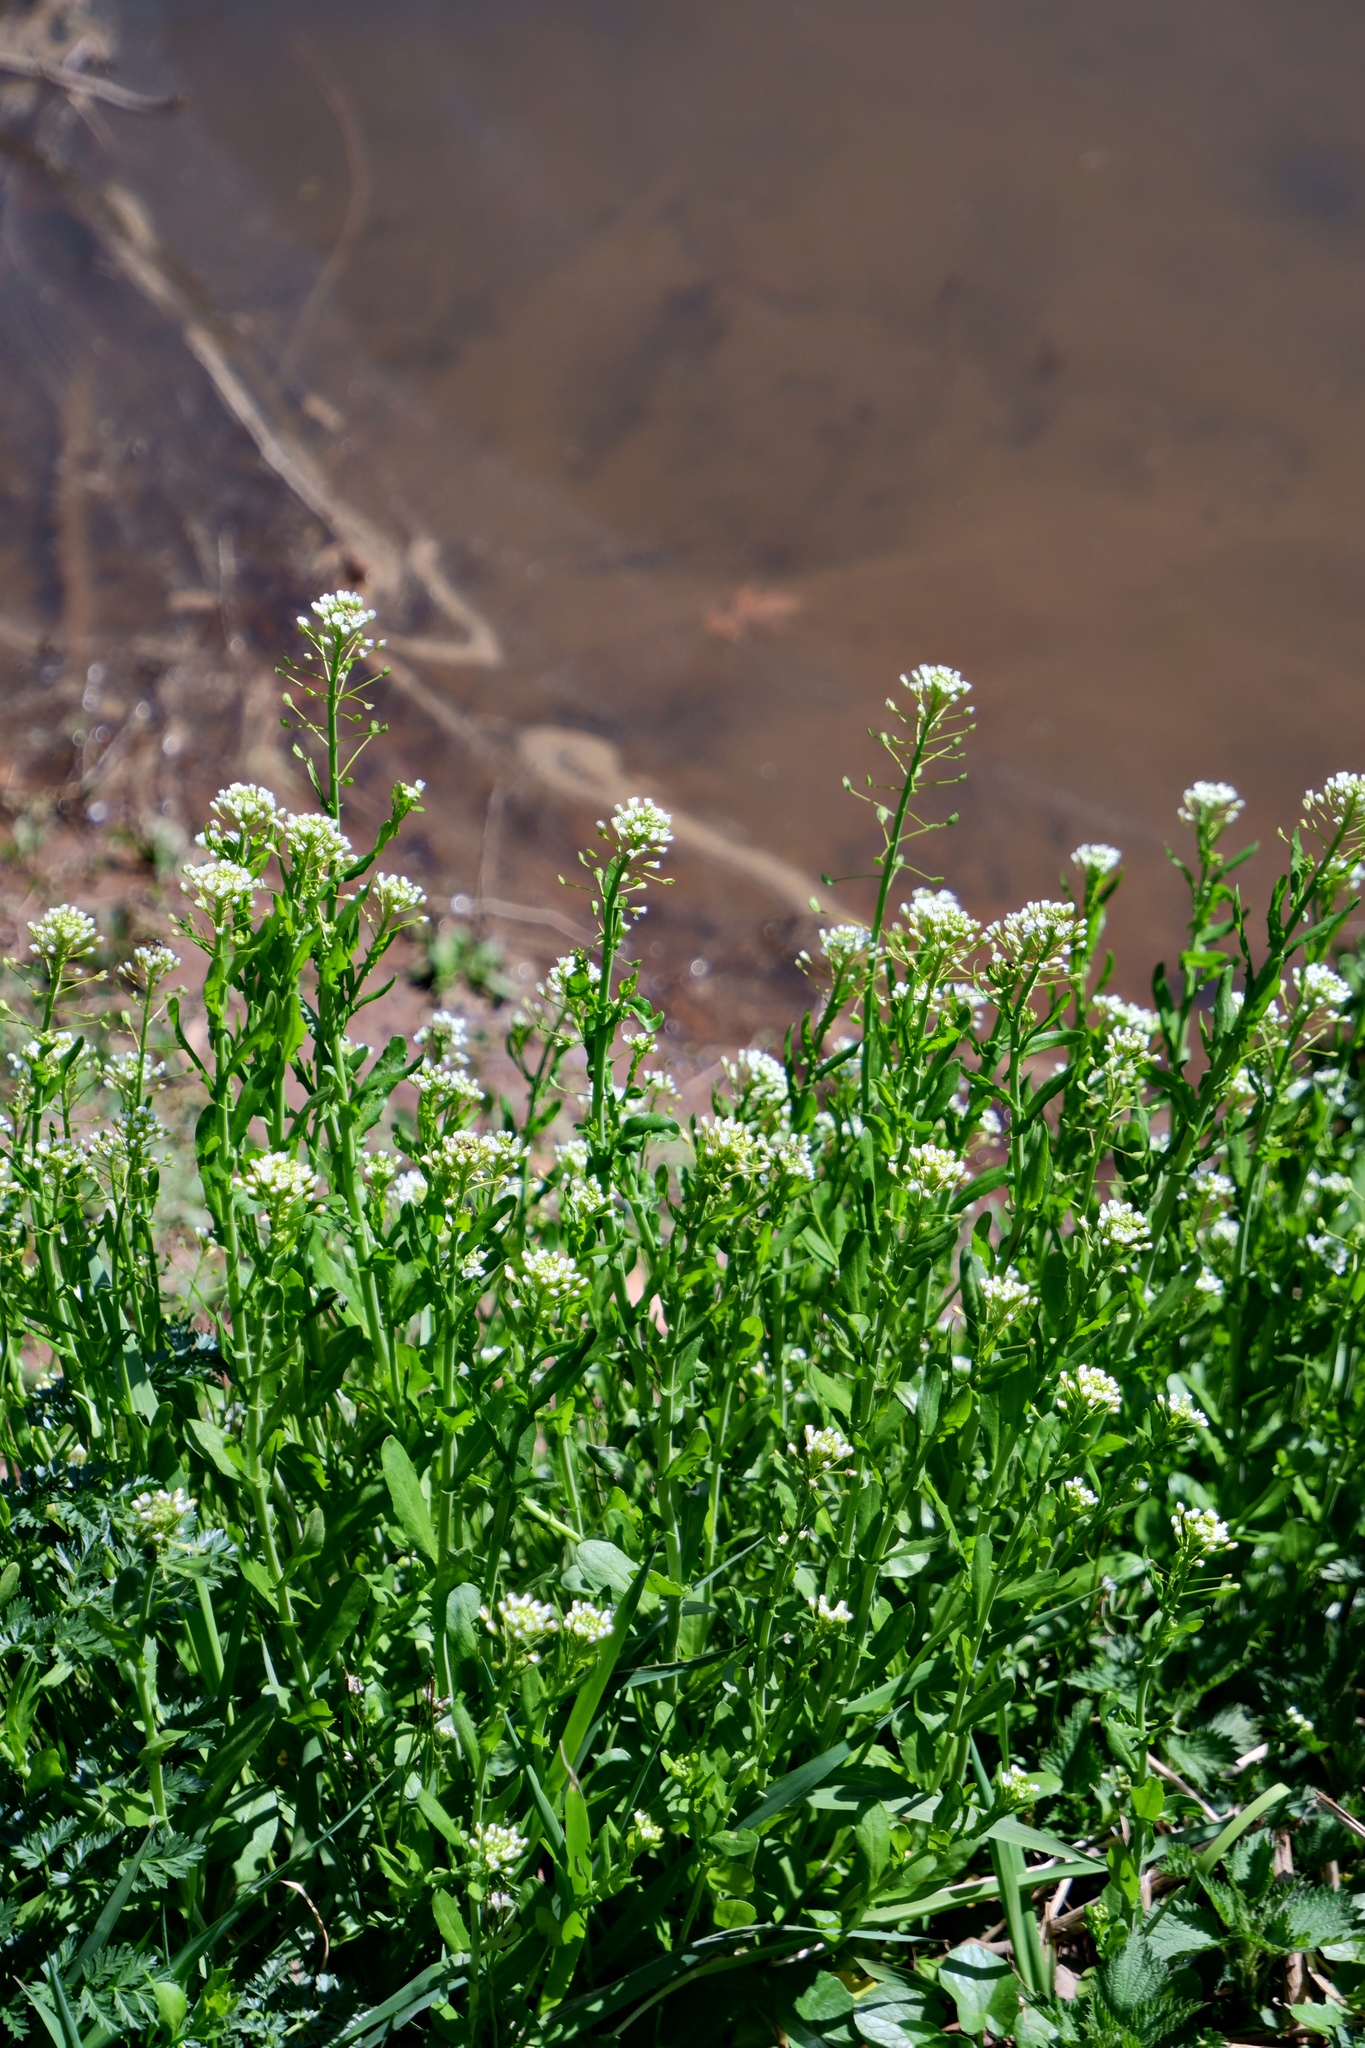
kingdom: Plantae
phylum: Tracheophyta
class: Magnoliopsida
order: Brassicales
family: Brassicaceae
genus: Mummenhoffia
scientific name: Mummenhoffia alliacea
